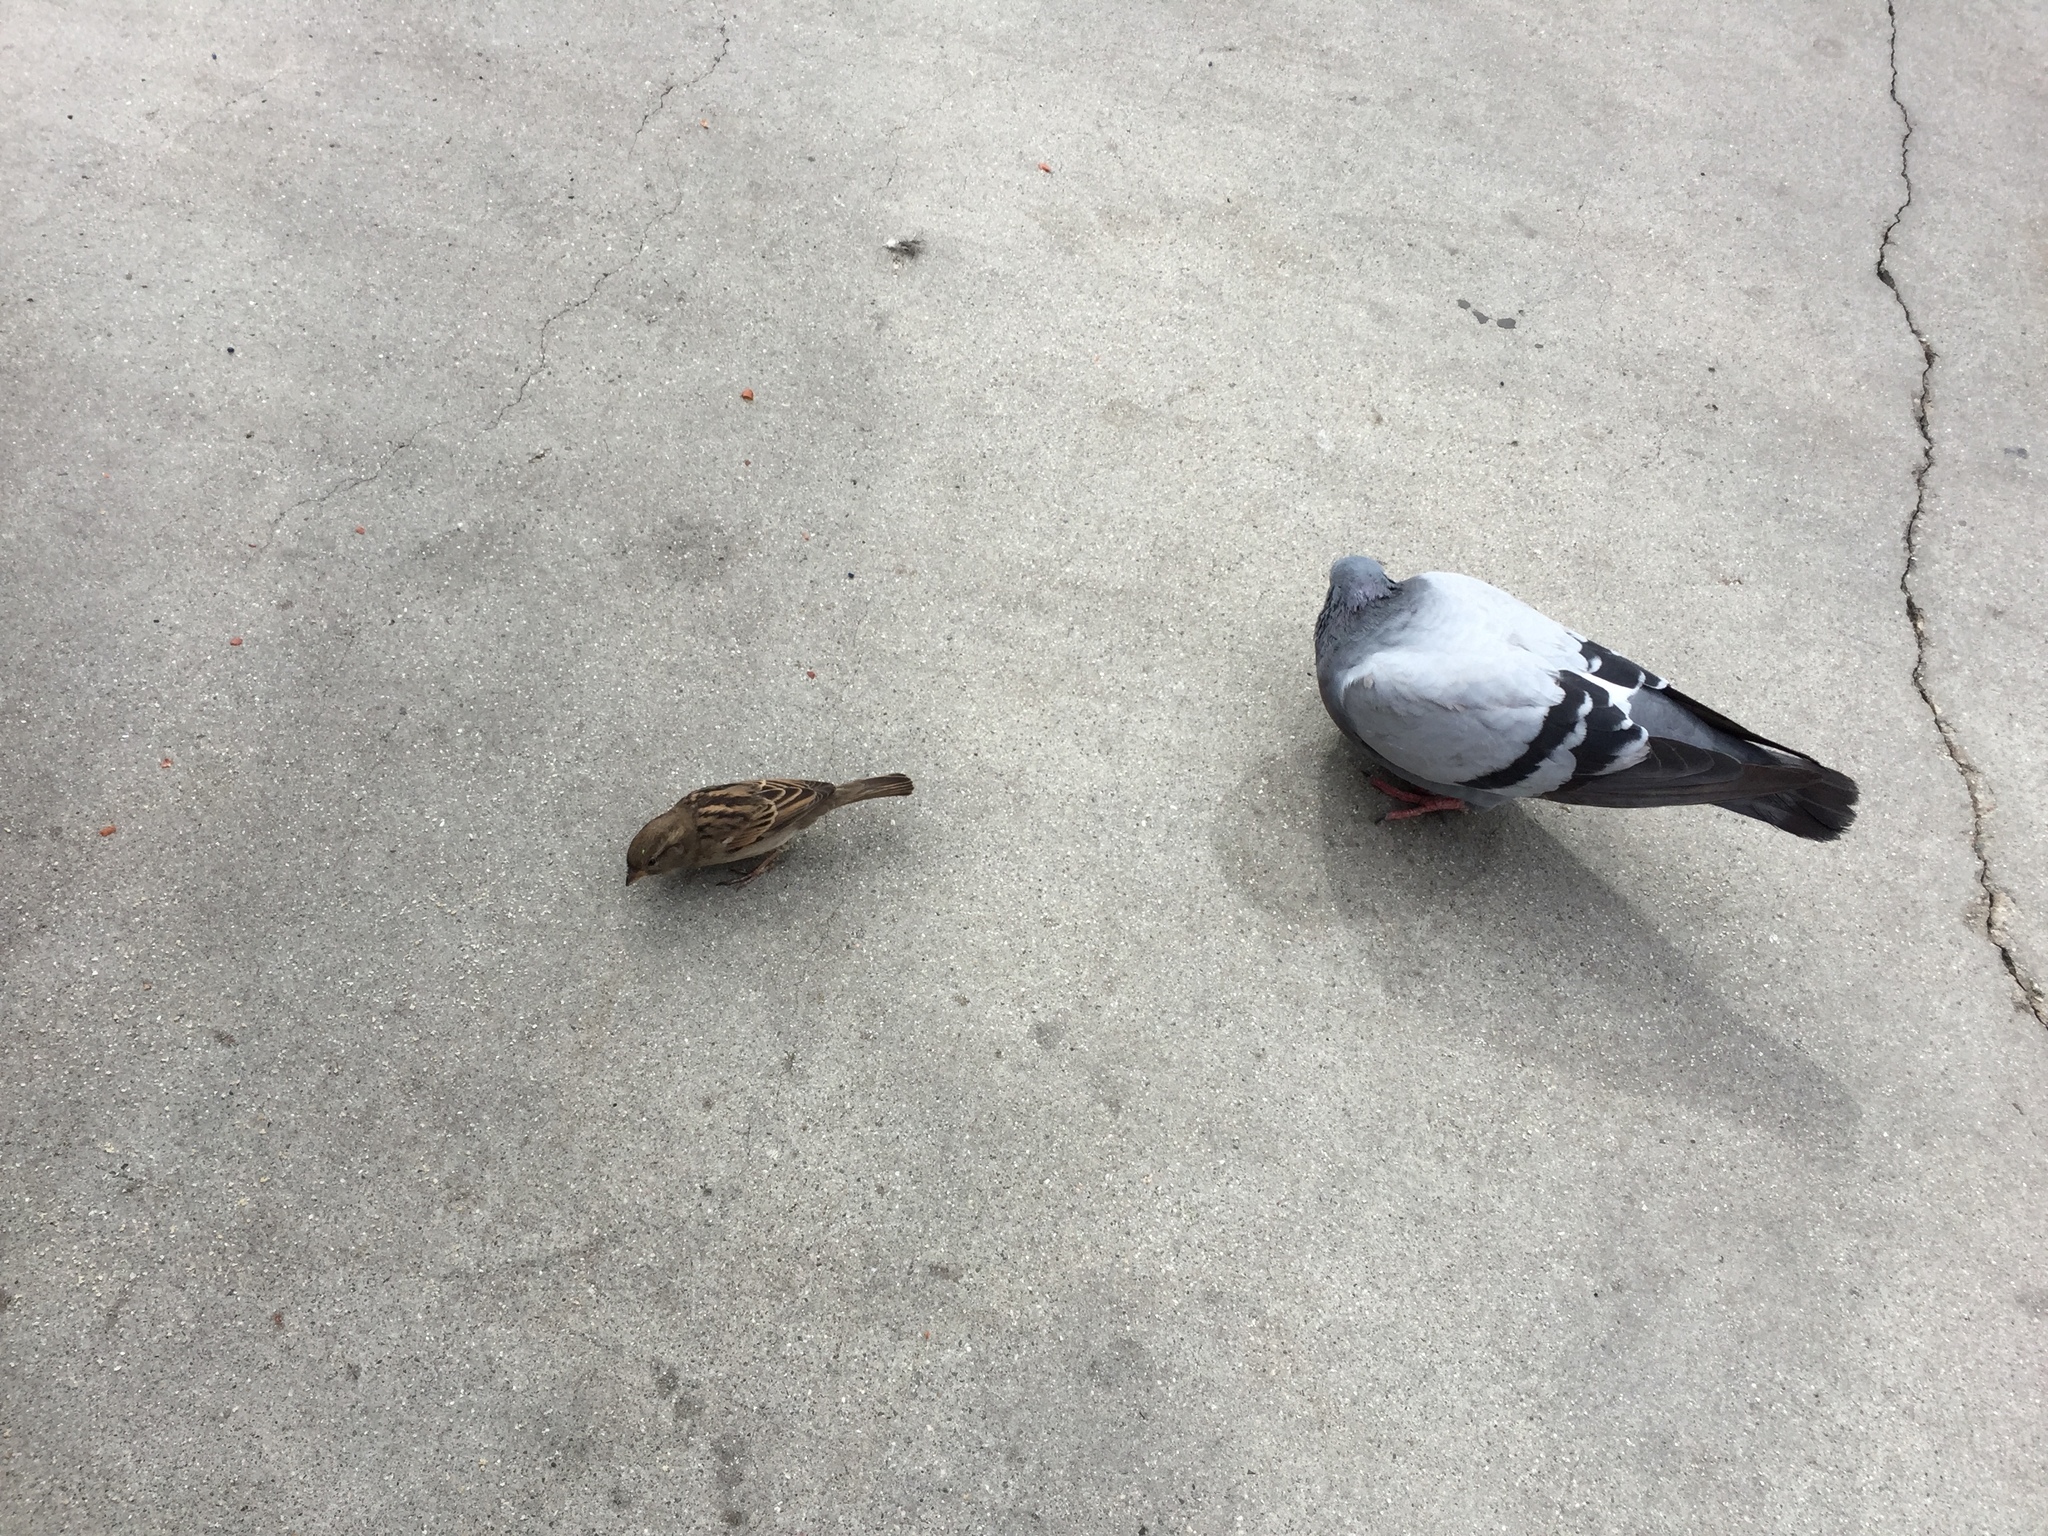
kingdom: Animalia
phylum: Chordata
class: Aves
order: Columbiformes
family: Columbidae
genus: Columba
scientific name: Columba livia
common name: Rock pigeon
